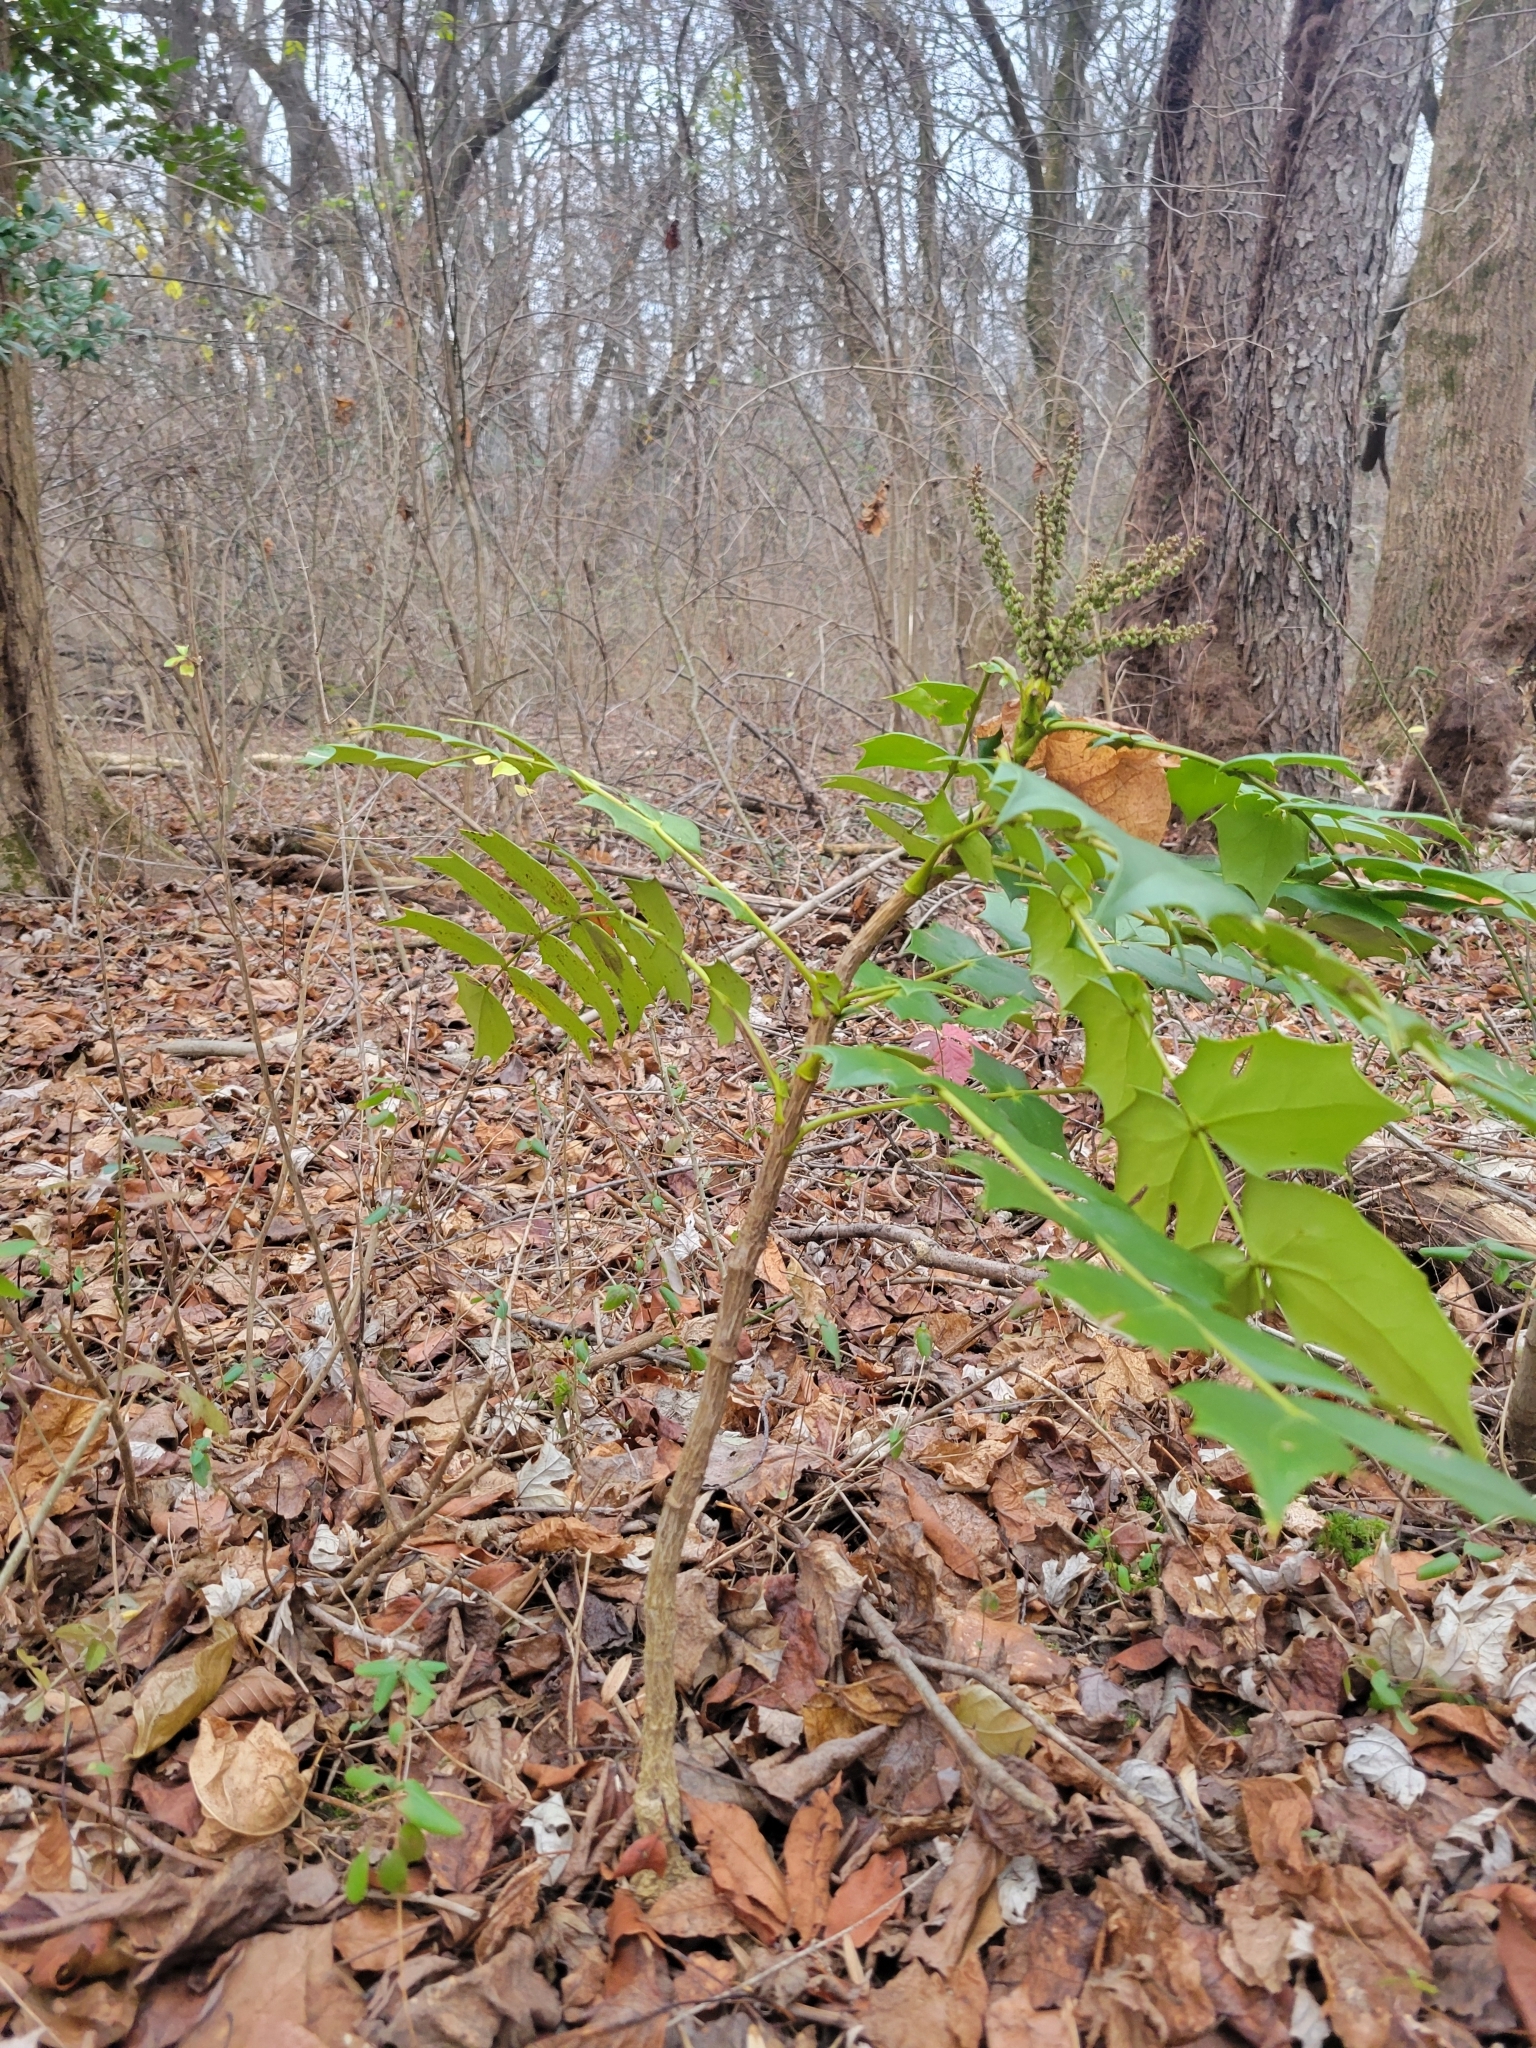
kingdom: Plantae
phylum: Tracheophyta
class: Magnoliopsida
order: Ranunculales
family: Berberidaceae
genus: Mahonia
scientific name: Mahonia bealei
